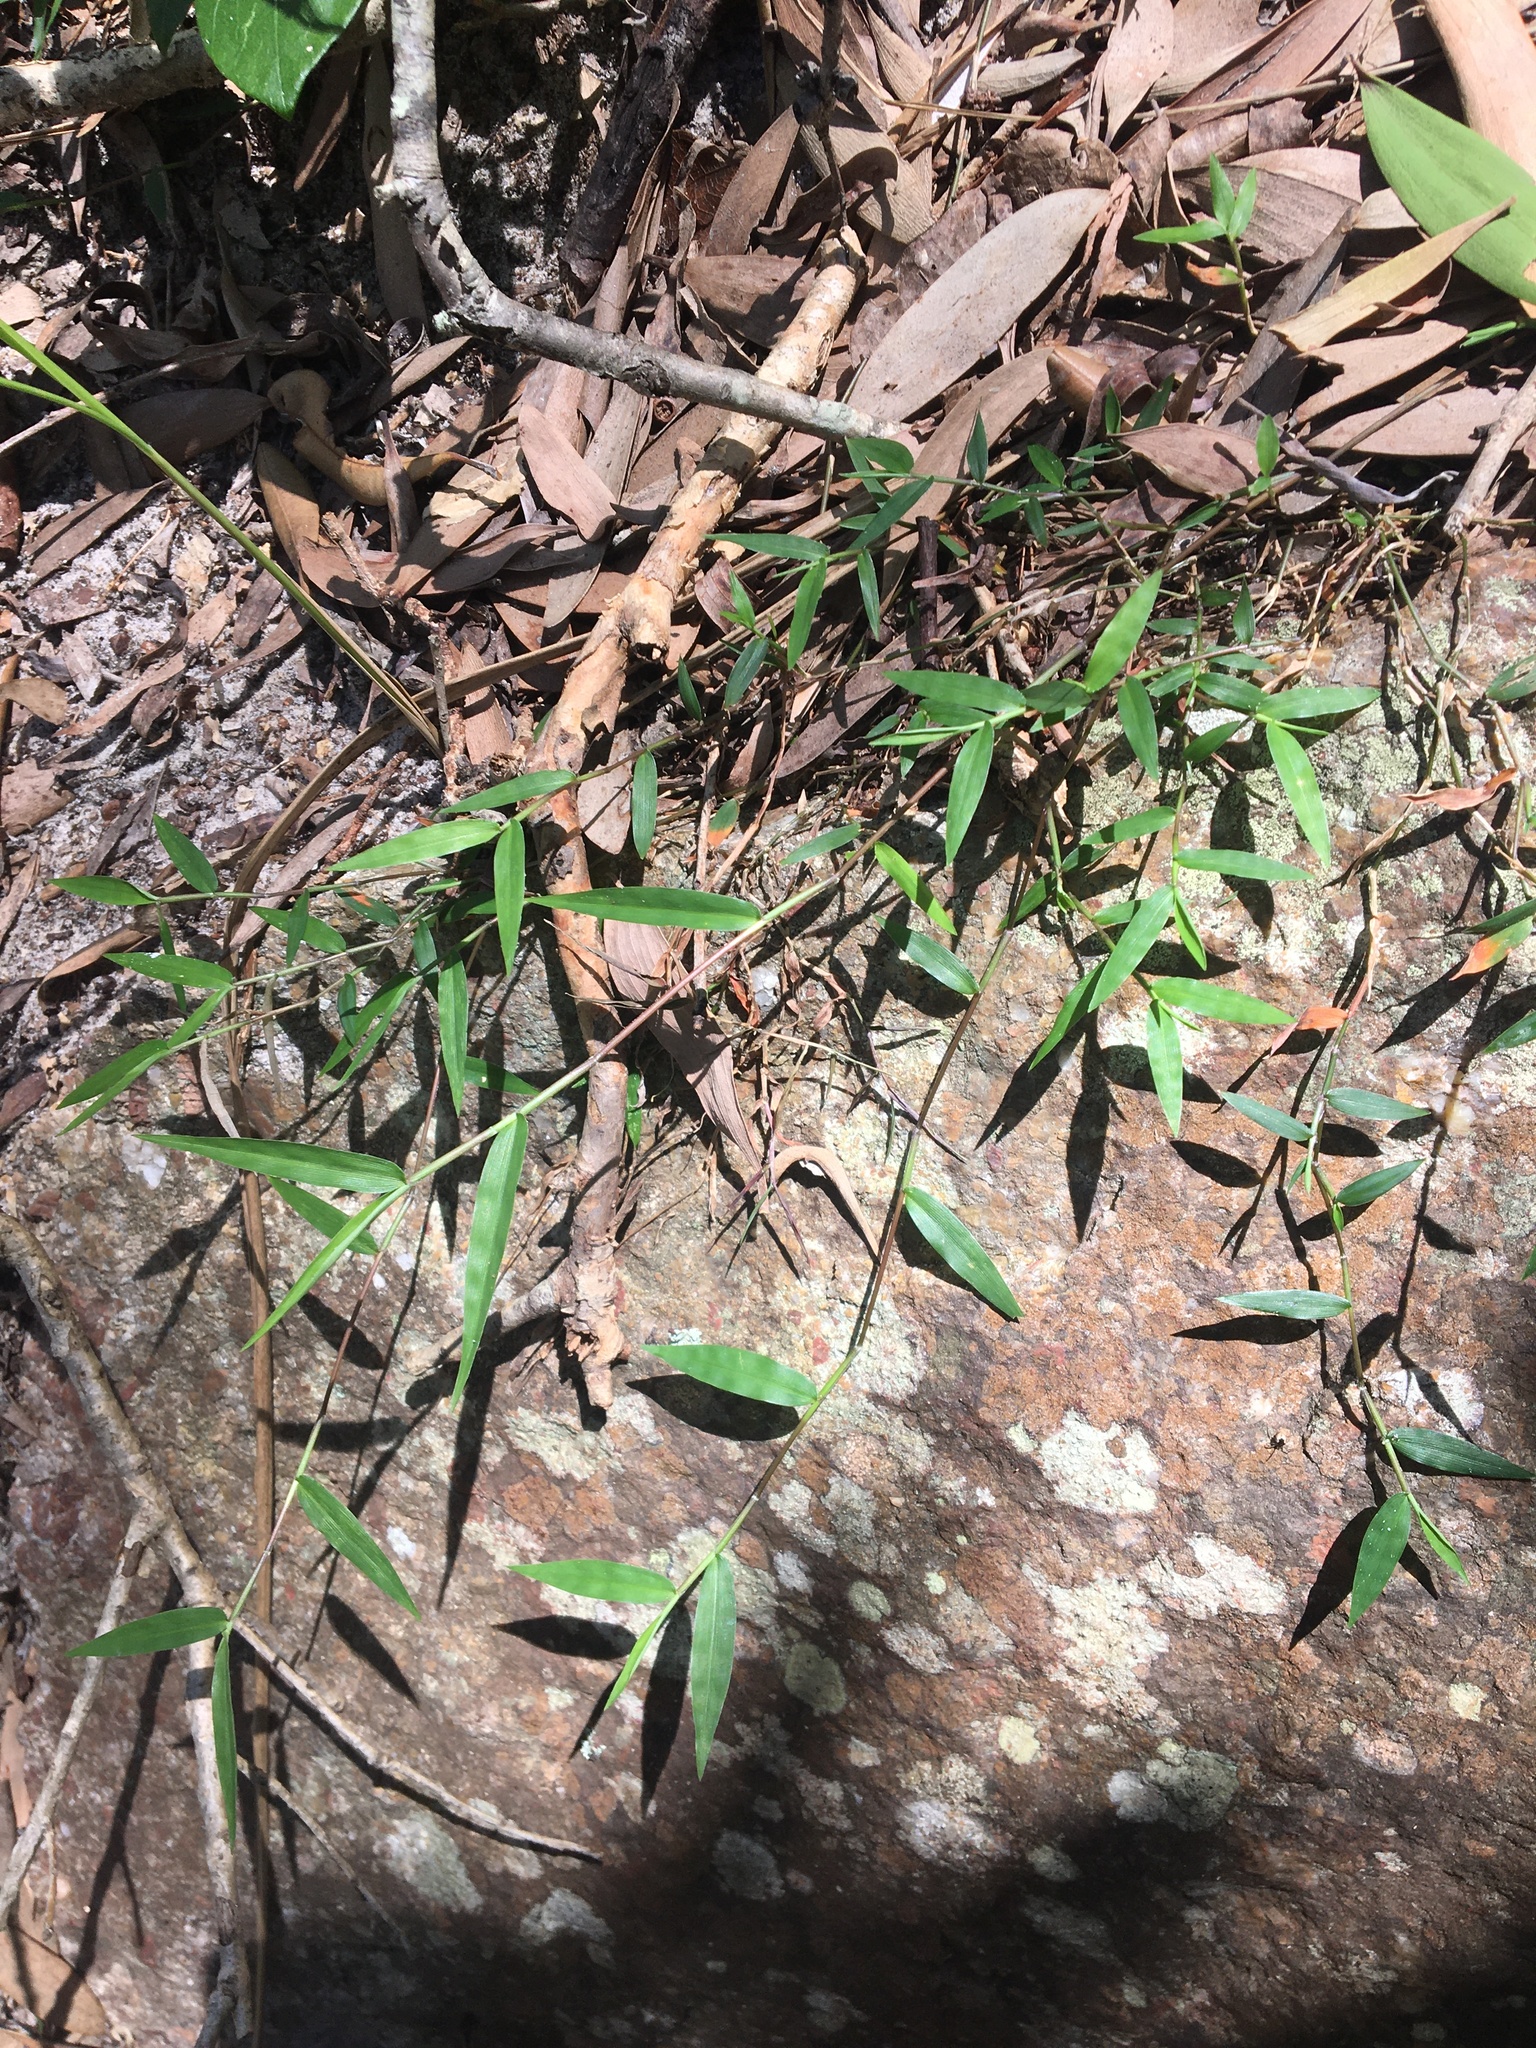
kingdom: Plantae
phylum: Tracheophyta
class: Liliopsida
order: Poales
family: Poaceae
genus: Ottochloa
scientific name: Ottochloa gracillima
